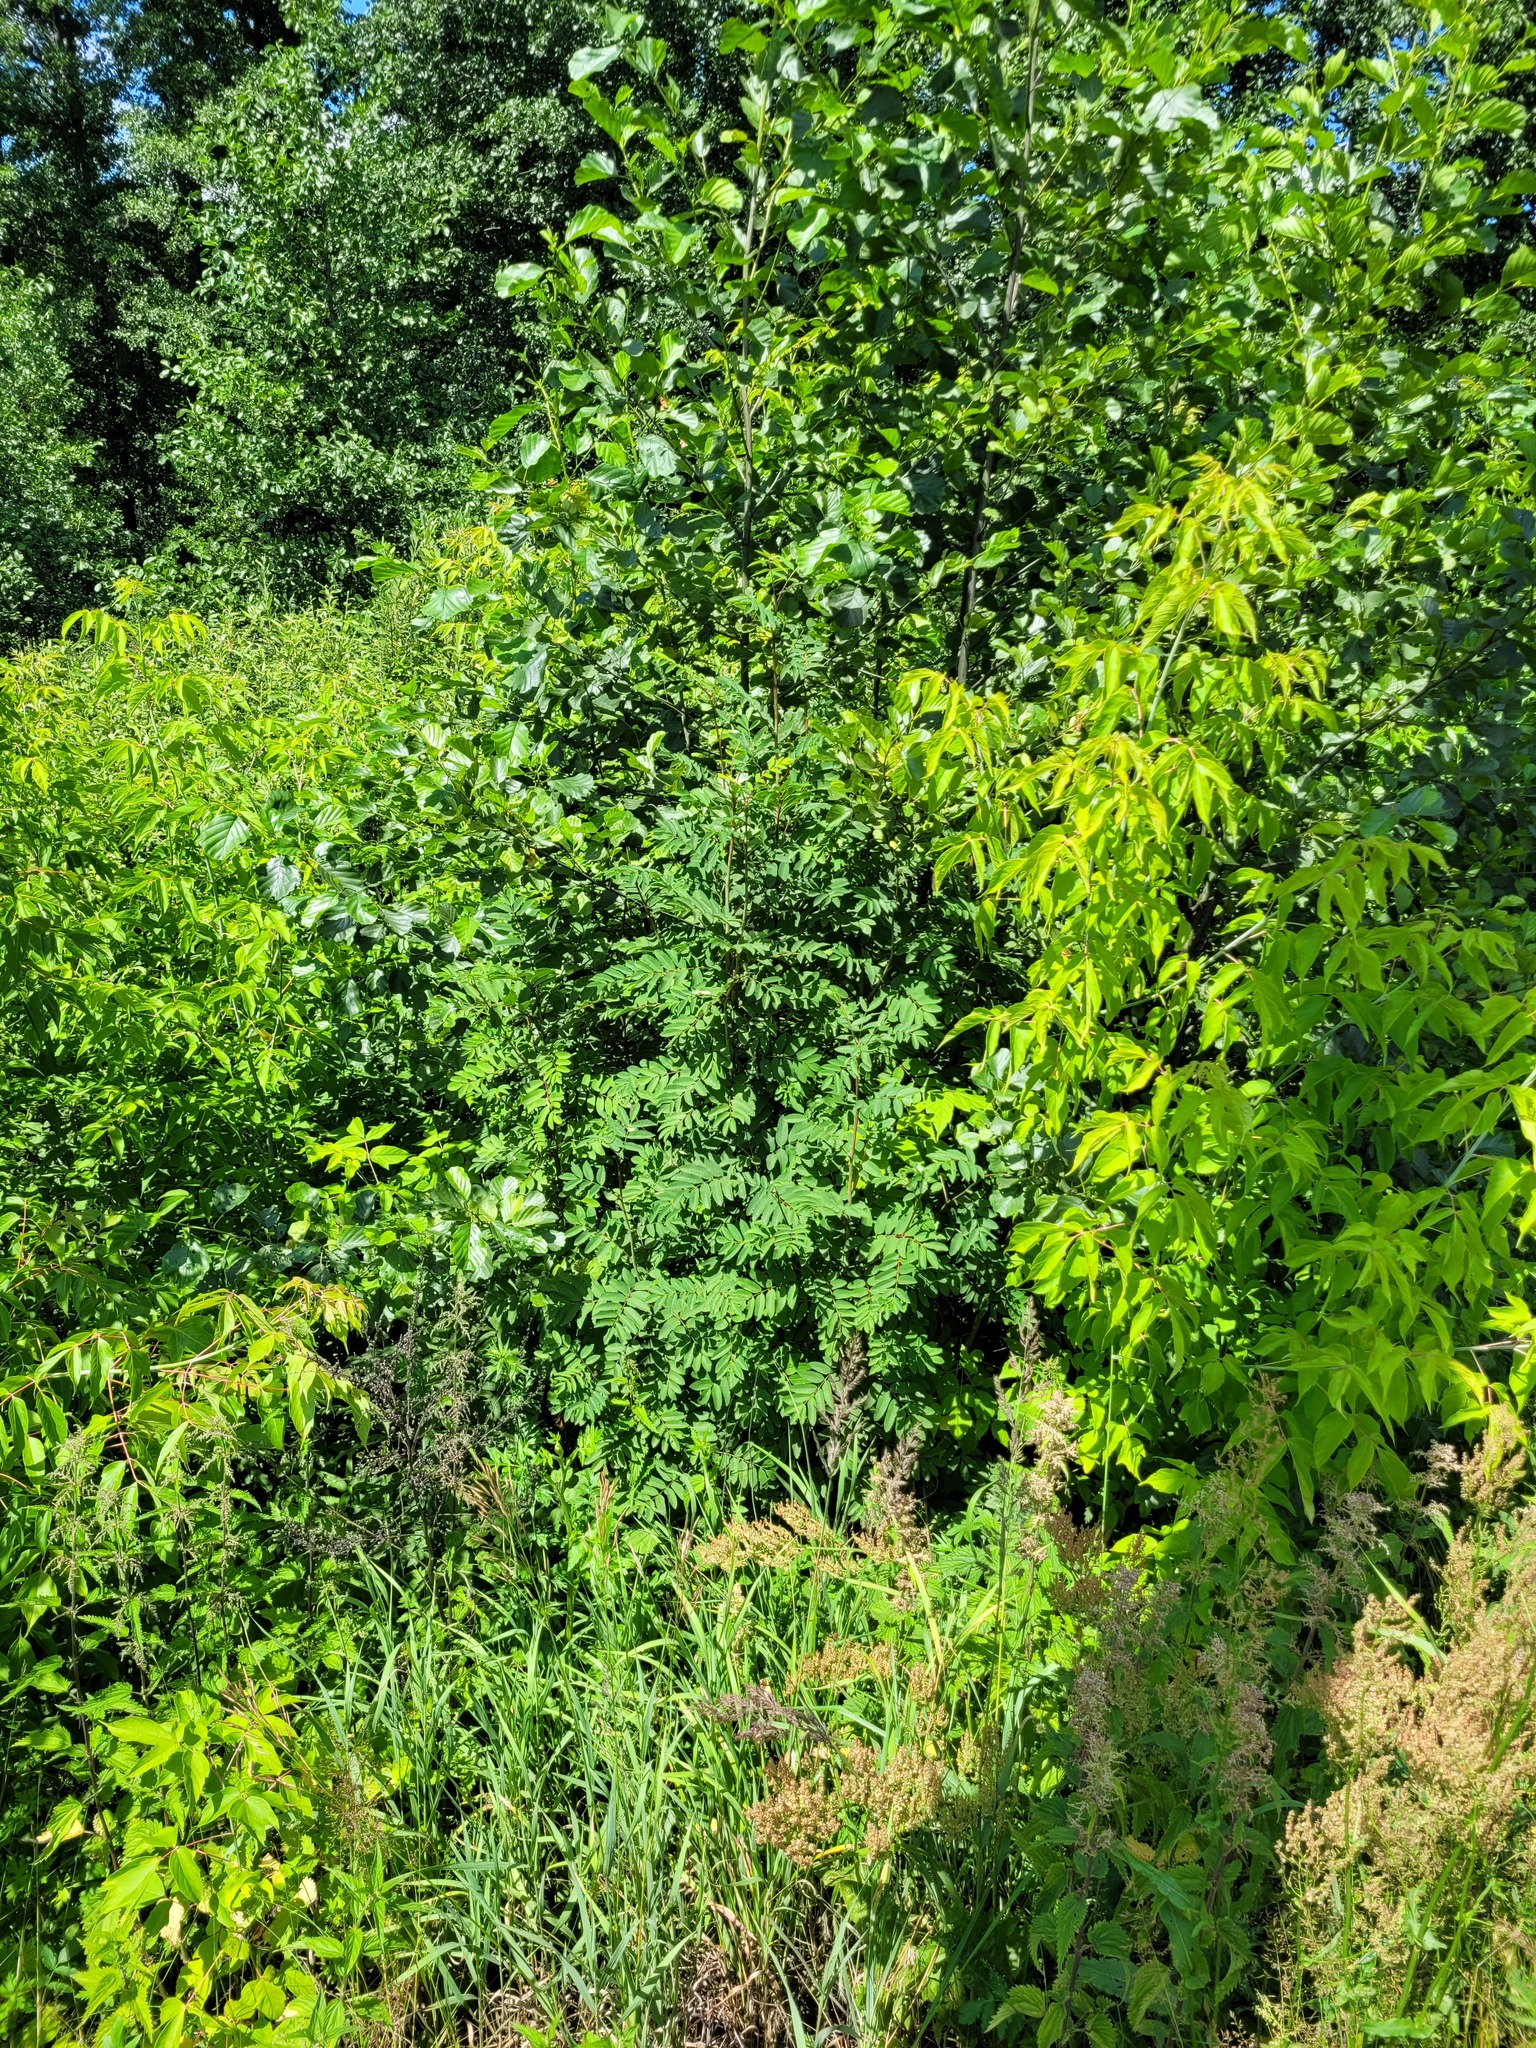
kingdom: Plantae
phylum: Tracheophyta
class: Magnoliopsida
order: Rosales
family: Rosaceae
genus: Sorbus
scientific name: Sorbus aucuparia
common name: Rowan
